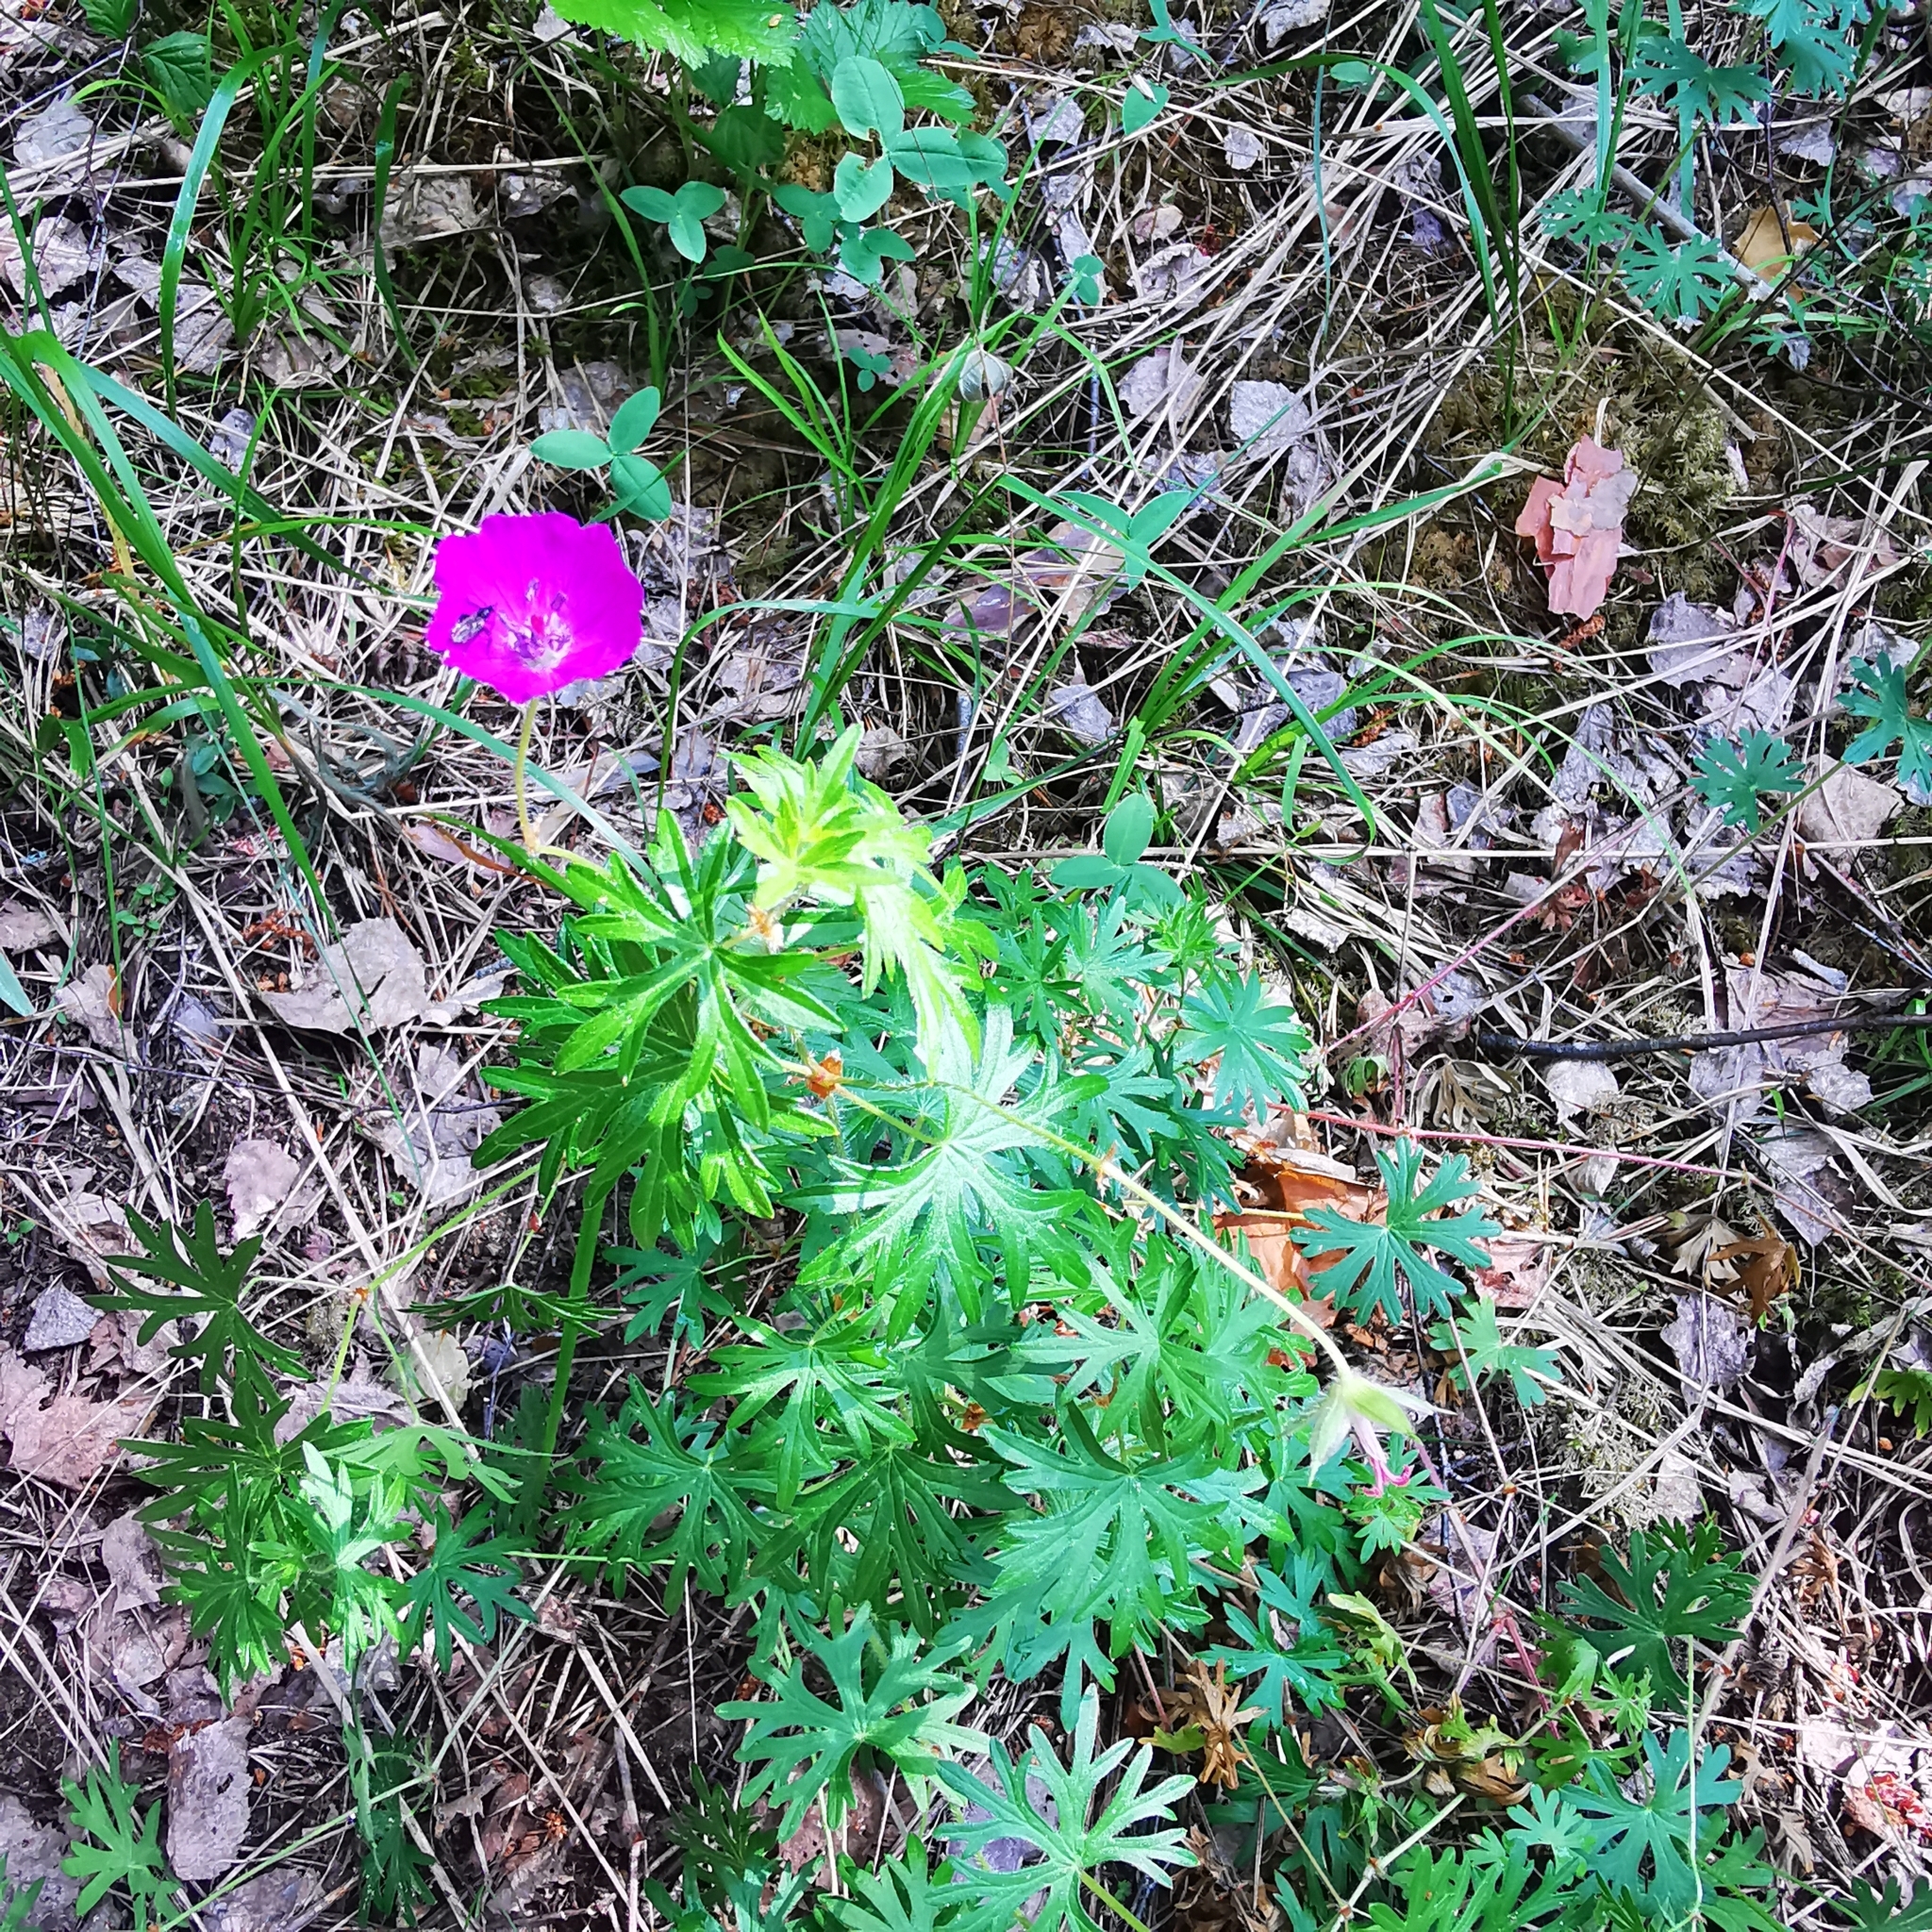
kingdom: Plantae
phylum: Tracheophyta
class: Magnoliopsida
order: Geraniales
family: Geraniaceae
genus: Geranium
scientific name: Geranium sanguineum
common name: Bloody crane's-bill
